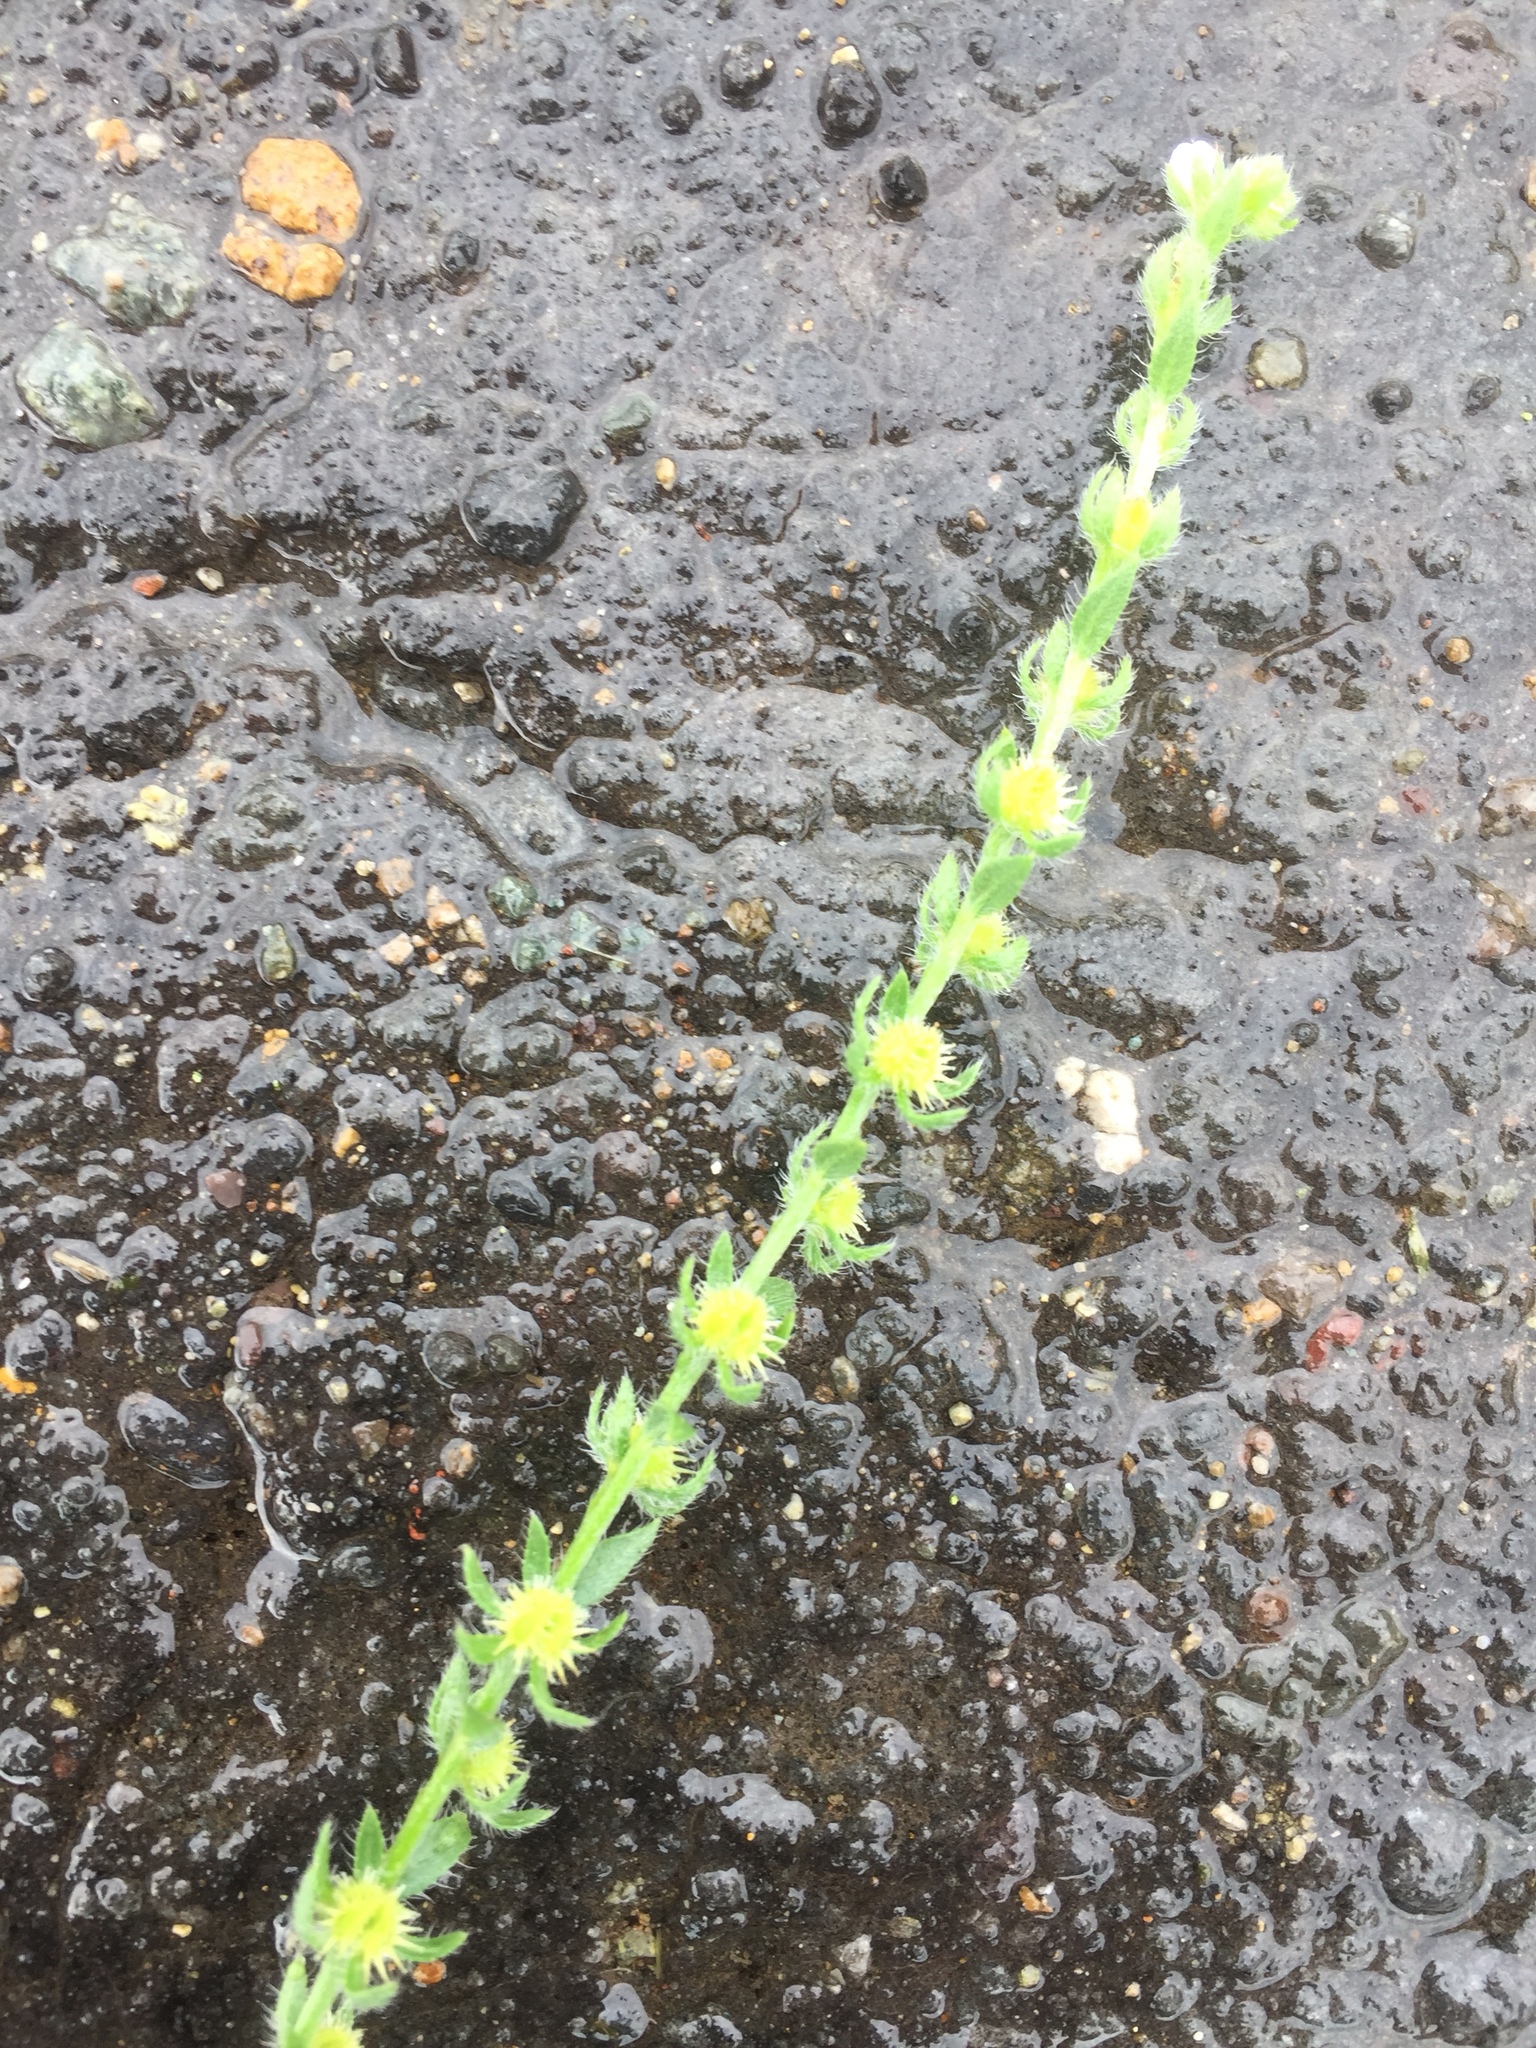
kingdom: Plantae
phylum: Tracheophyta
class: Magnoliopsida
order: Boraginales
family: Boraginaceae
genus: Lappula
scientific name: Lappula squarrosa
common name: European stickseed
